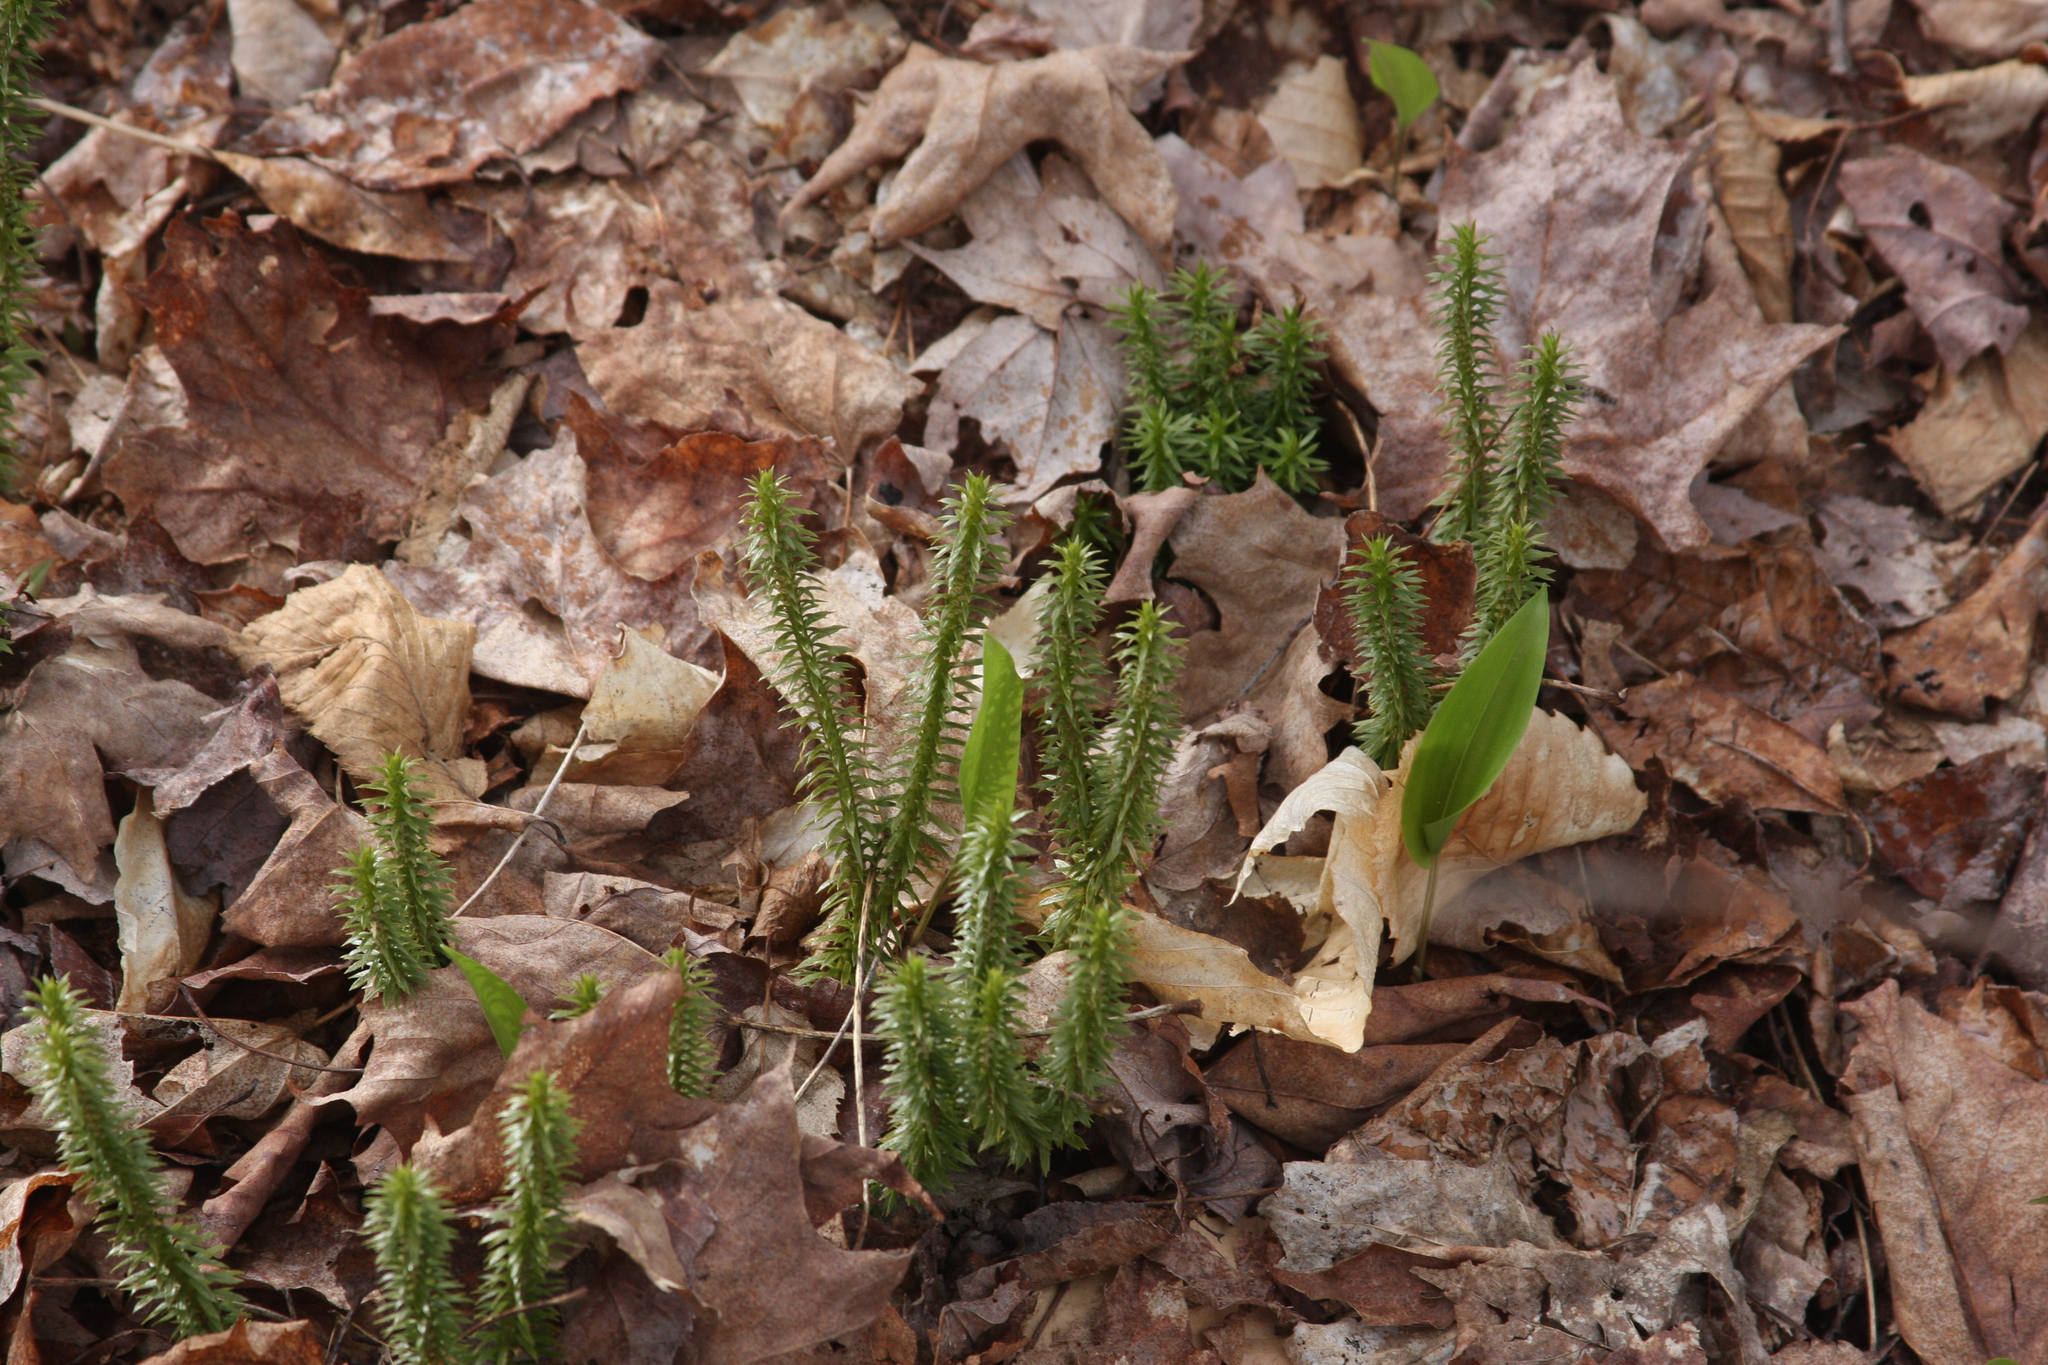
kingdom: Plantae
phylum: Tracheophyta
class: Lycopodiopsida
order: Lycopodiales
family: Lycopodiaceae
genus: Spinulum
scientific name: Spinulum annotinum
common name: Interrupted club-moss
